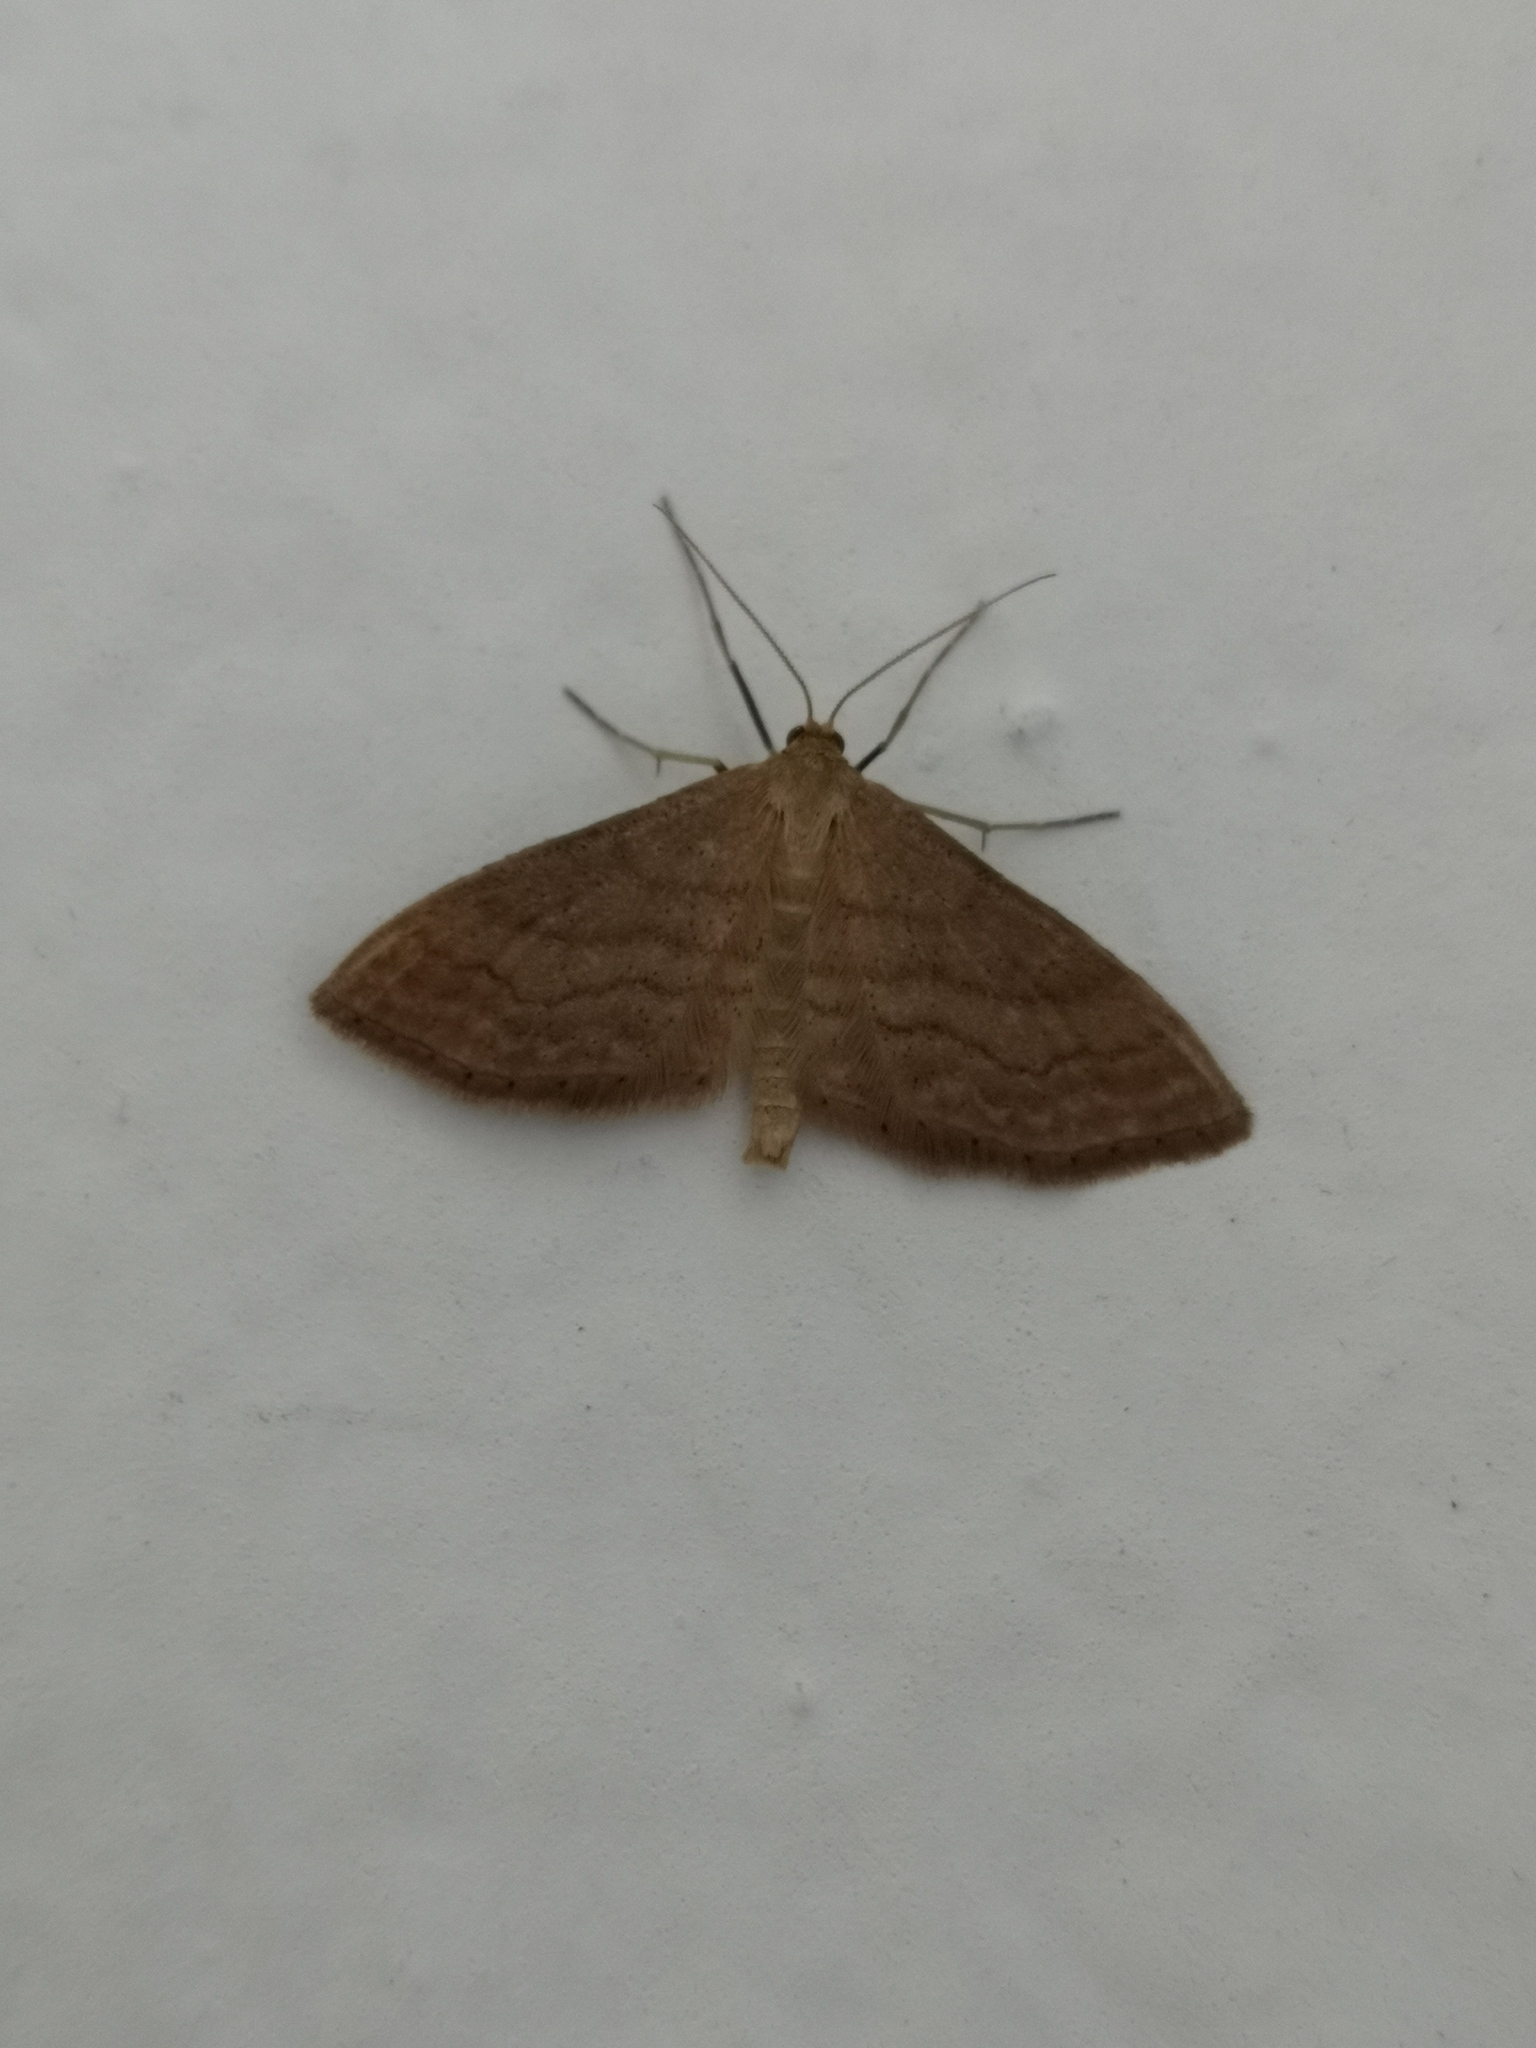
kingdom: Animalia
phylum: Arthropoda
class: Insecta
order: Lepidoptera
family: Geometridae
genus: Idaea
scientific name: Idaea ochrata
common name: Bright wave
